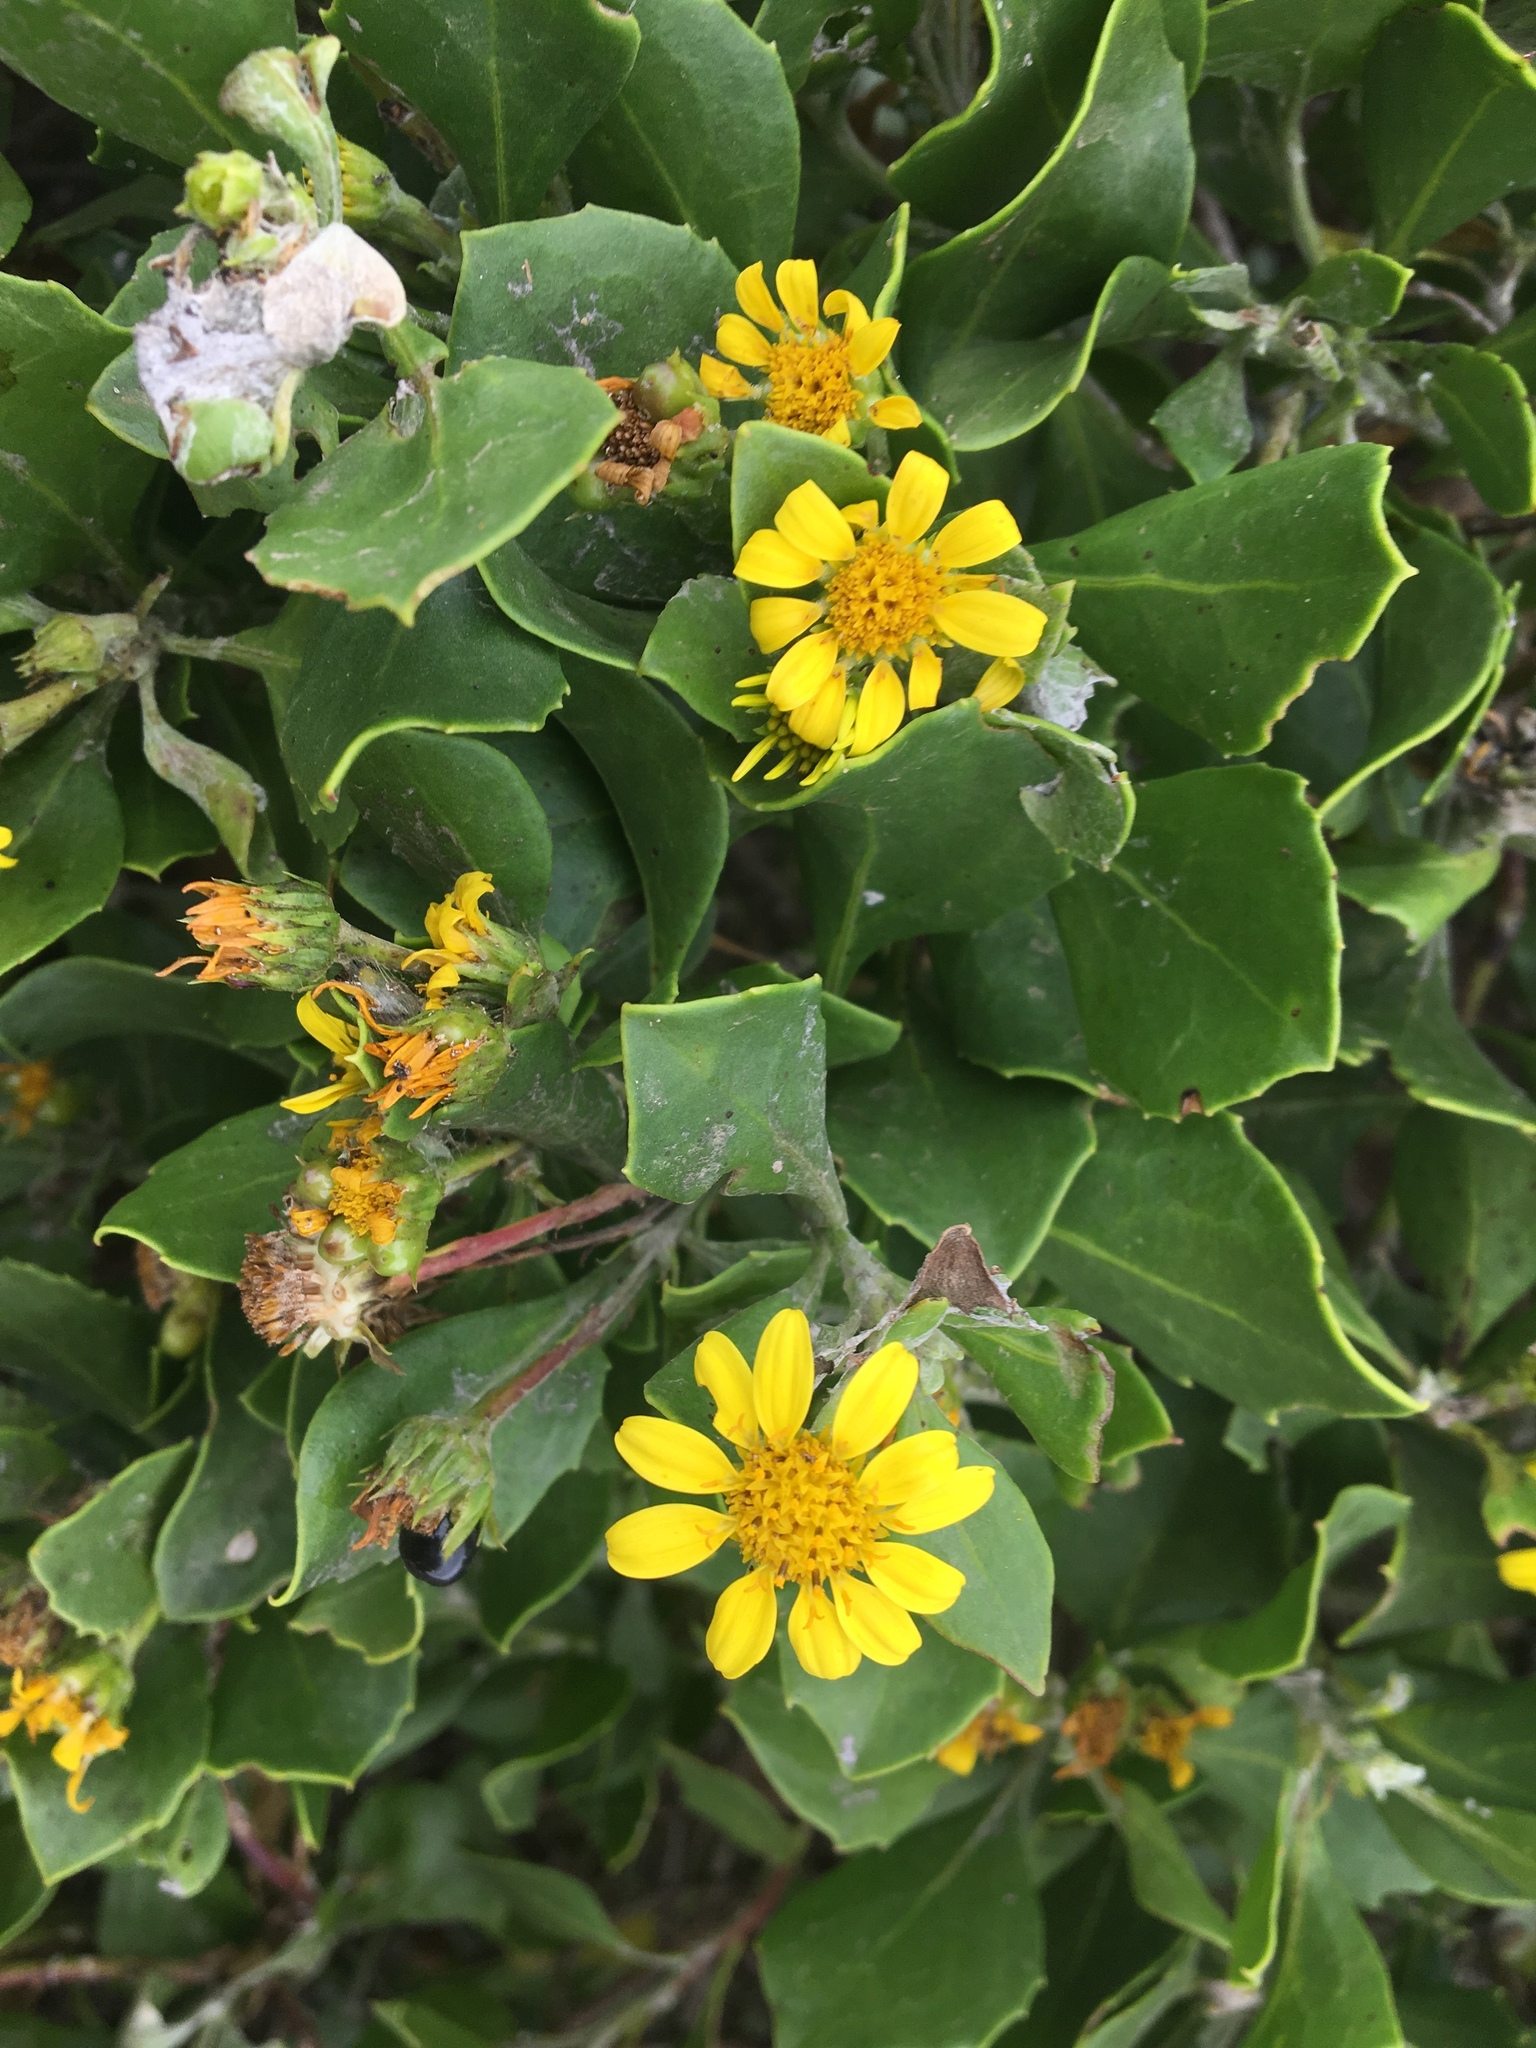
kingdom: Plantae
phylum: Tracheophyta
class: Magnoliopsida
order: Asterales
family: Asteraceae
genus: Osteospermum
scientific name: Osteospermum moniliferum
